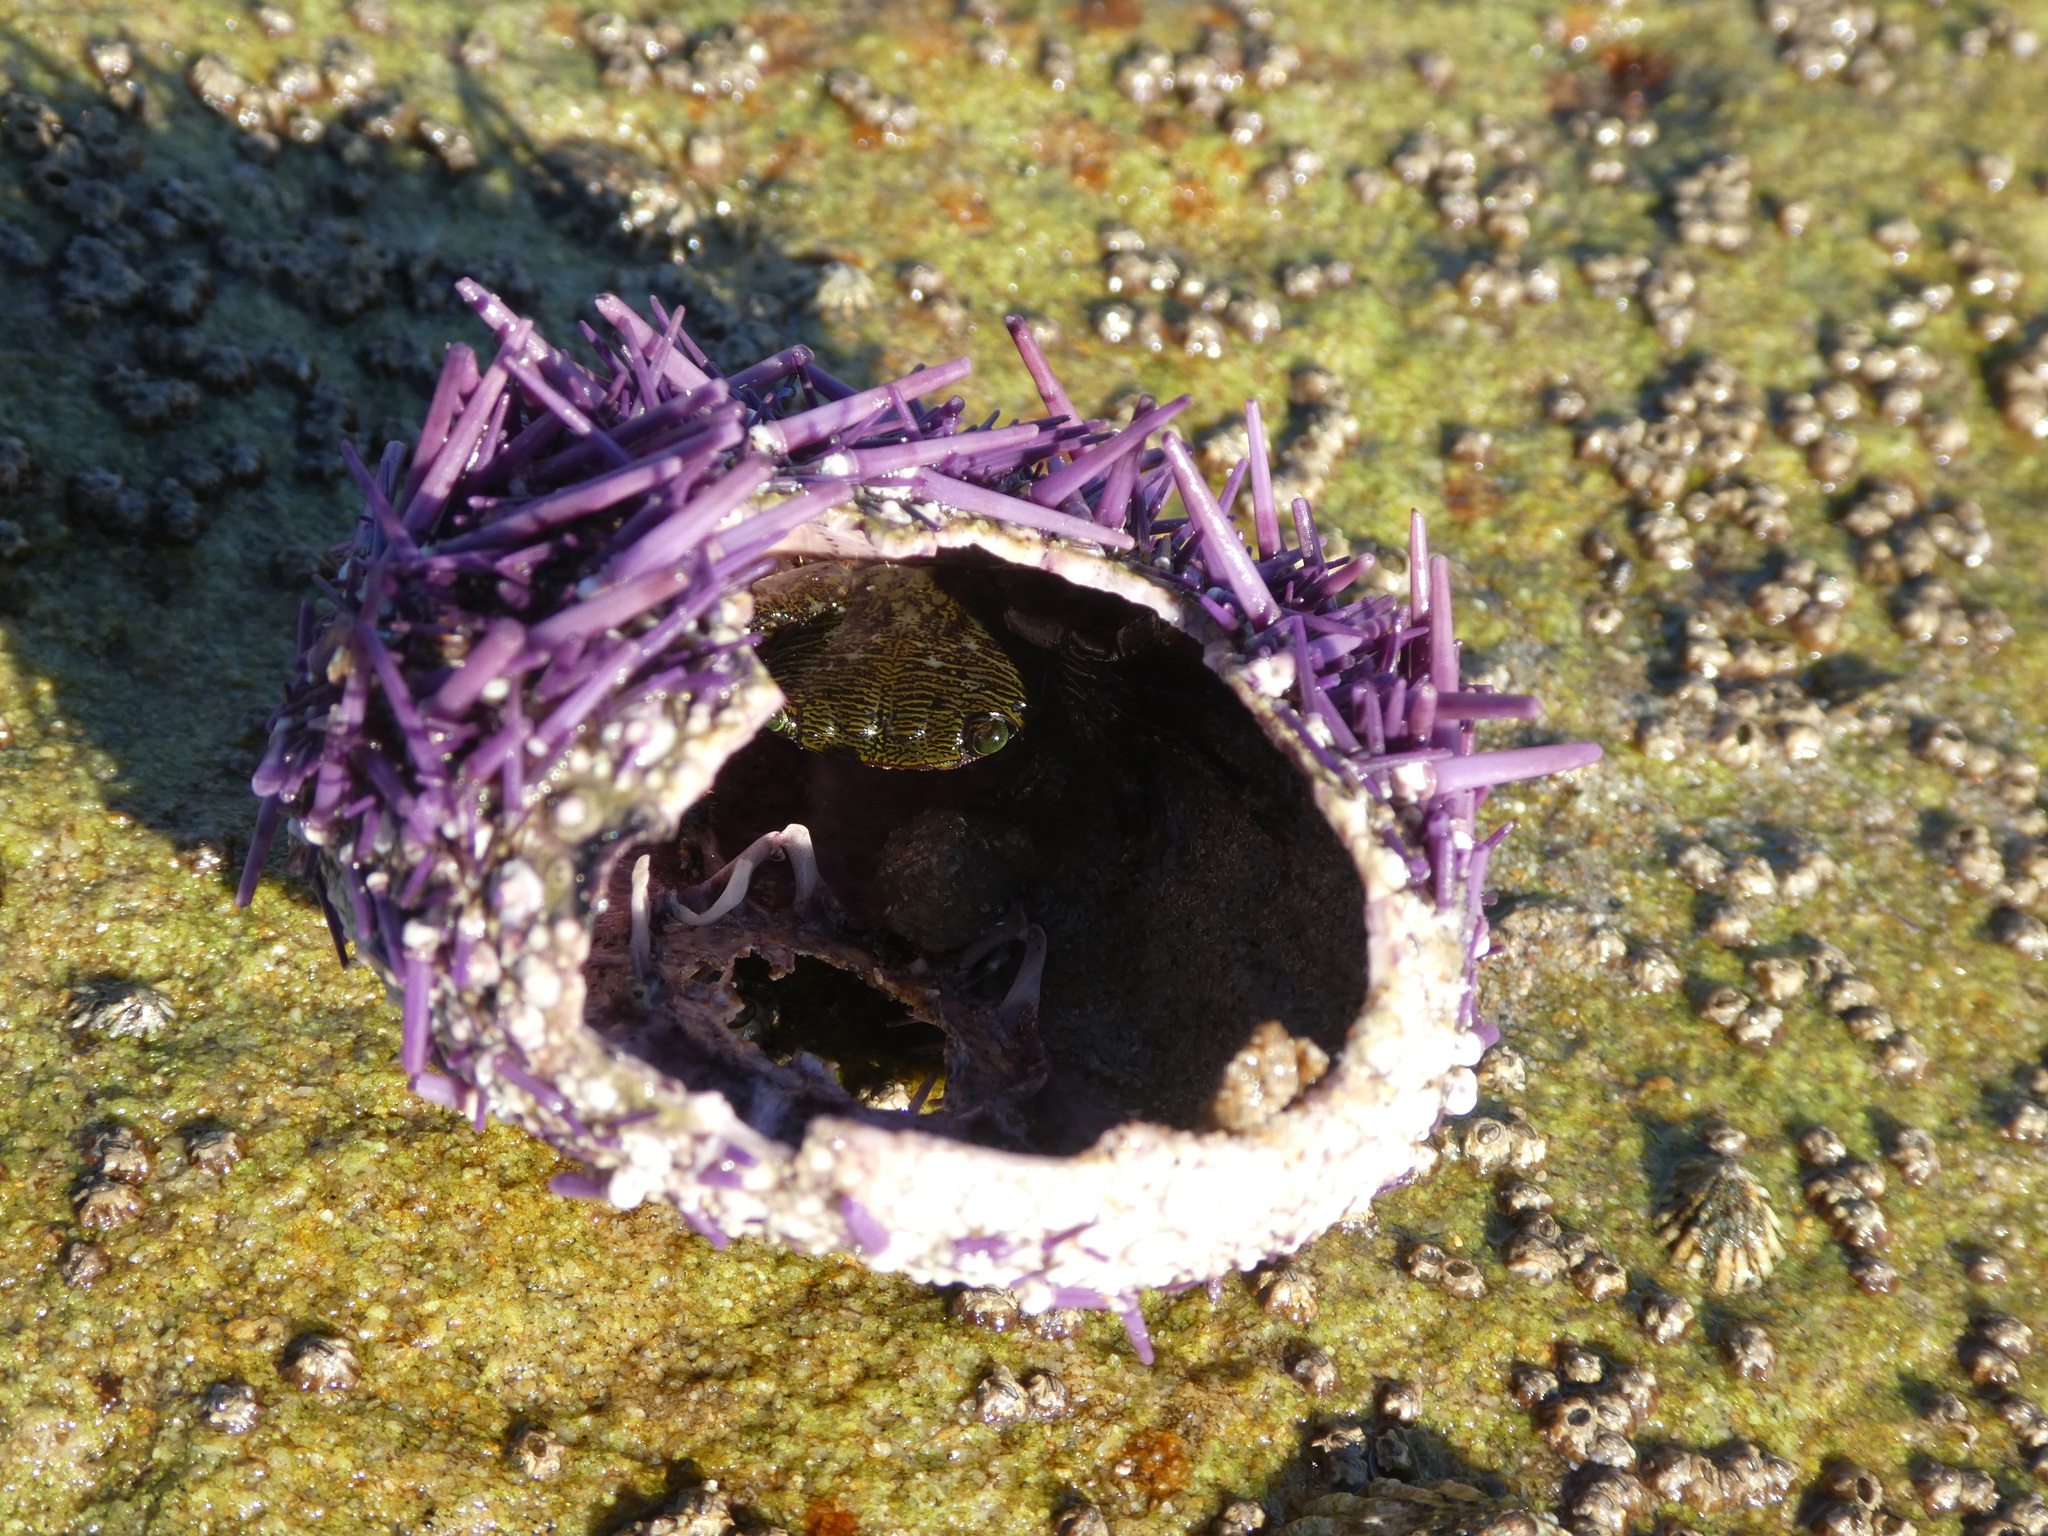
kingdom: Animalia
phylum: Arthropoda
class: Malacostraca
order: Decapoda
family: Grapsidae
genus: Pachygrapsus
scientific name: Pachygrapsus crassipes
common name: Striped shore crab
